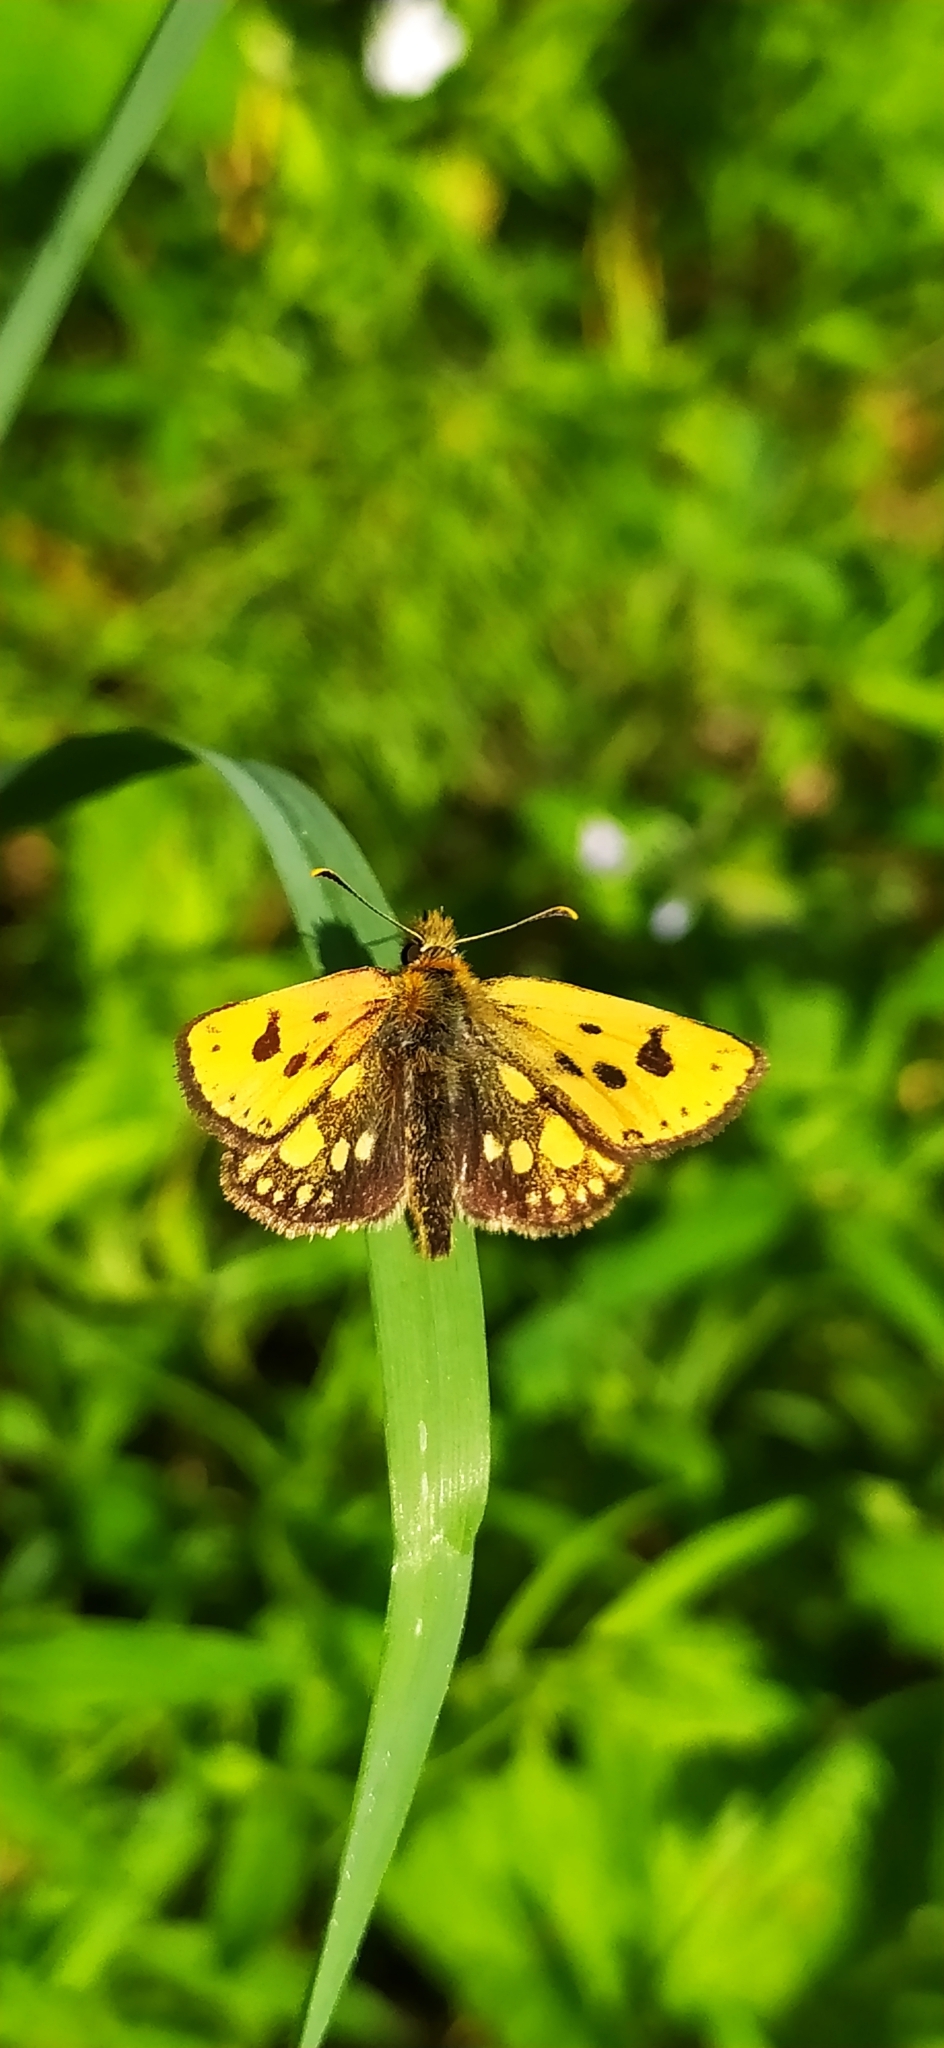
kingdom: Animalia
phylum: Arthropoda
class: Insecta
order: Lepidoptera
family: Hesperiidae
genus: Carterocephalus
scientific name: Carterocephalus silvicola
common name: Northern chequered skipper
